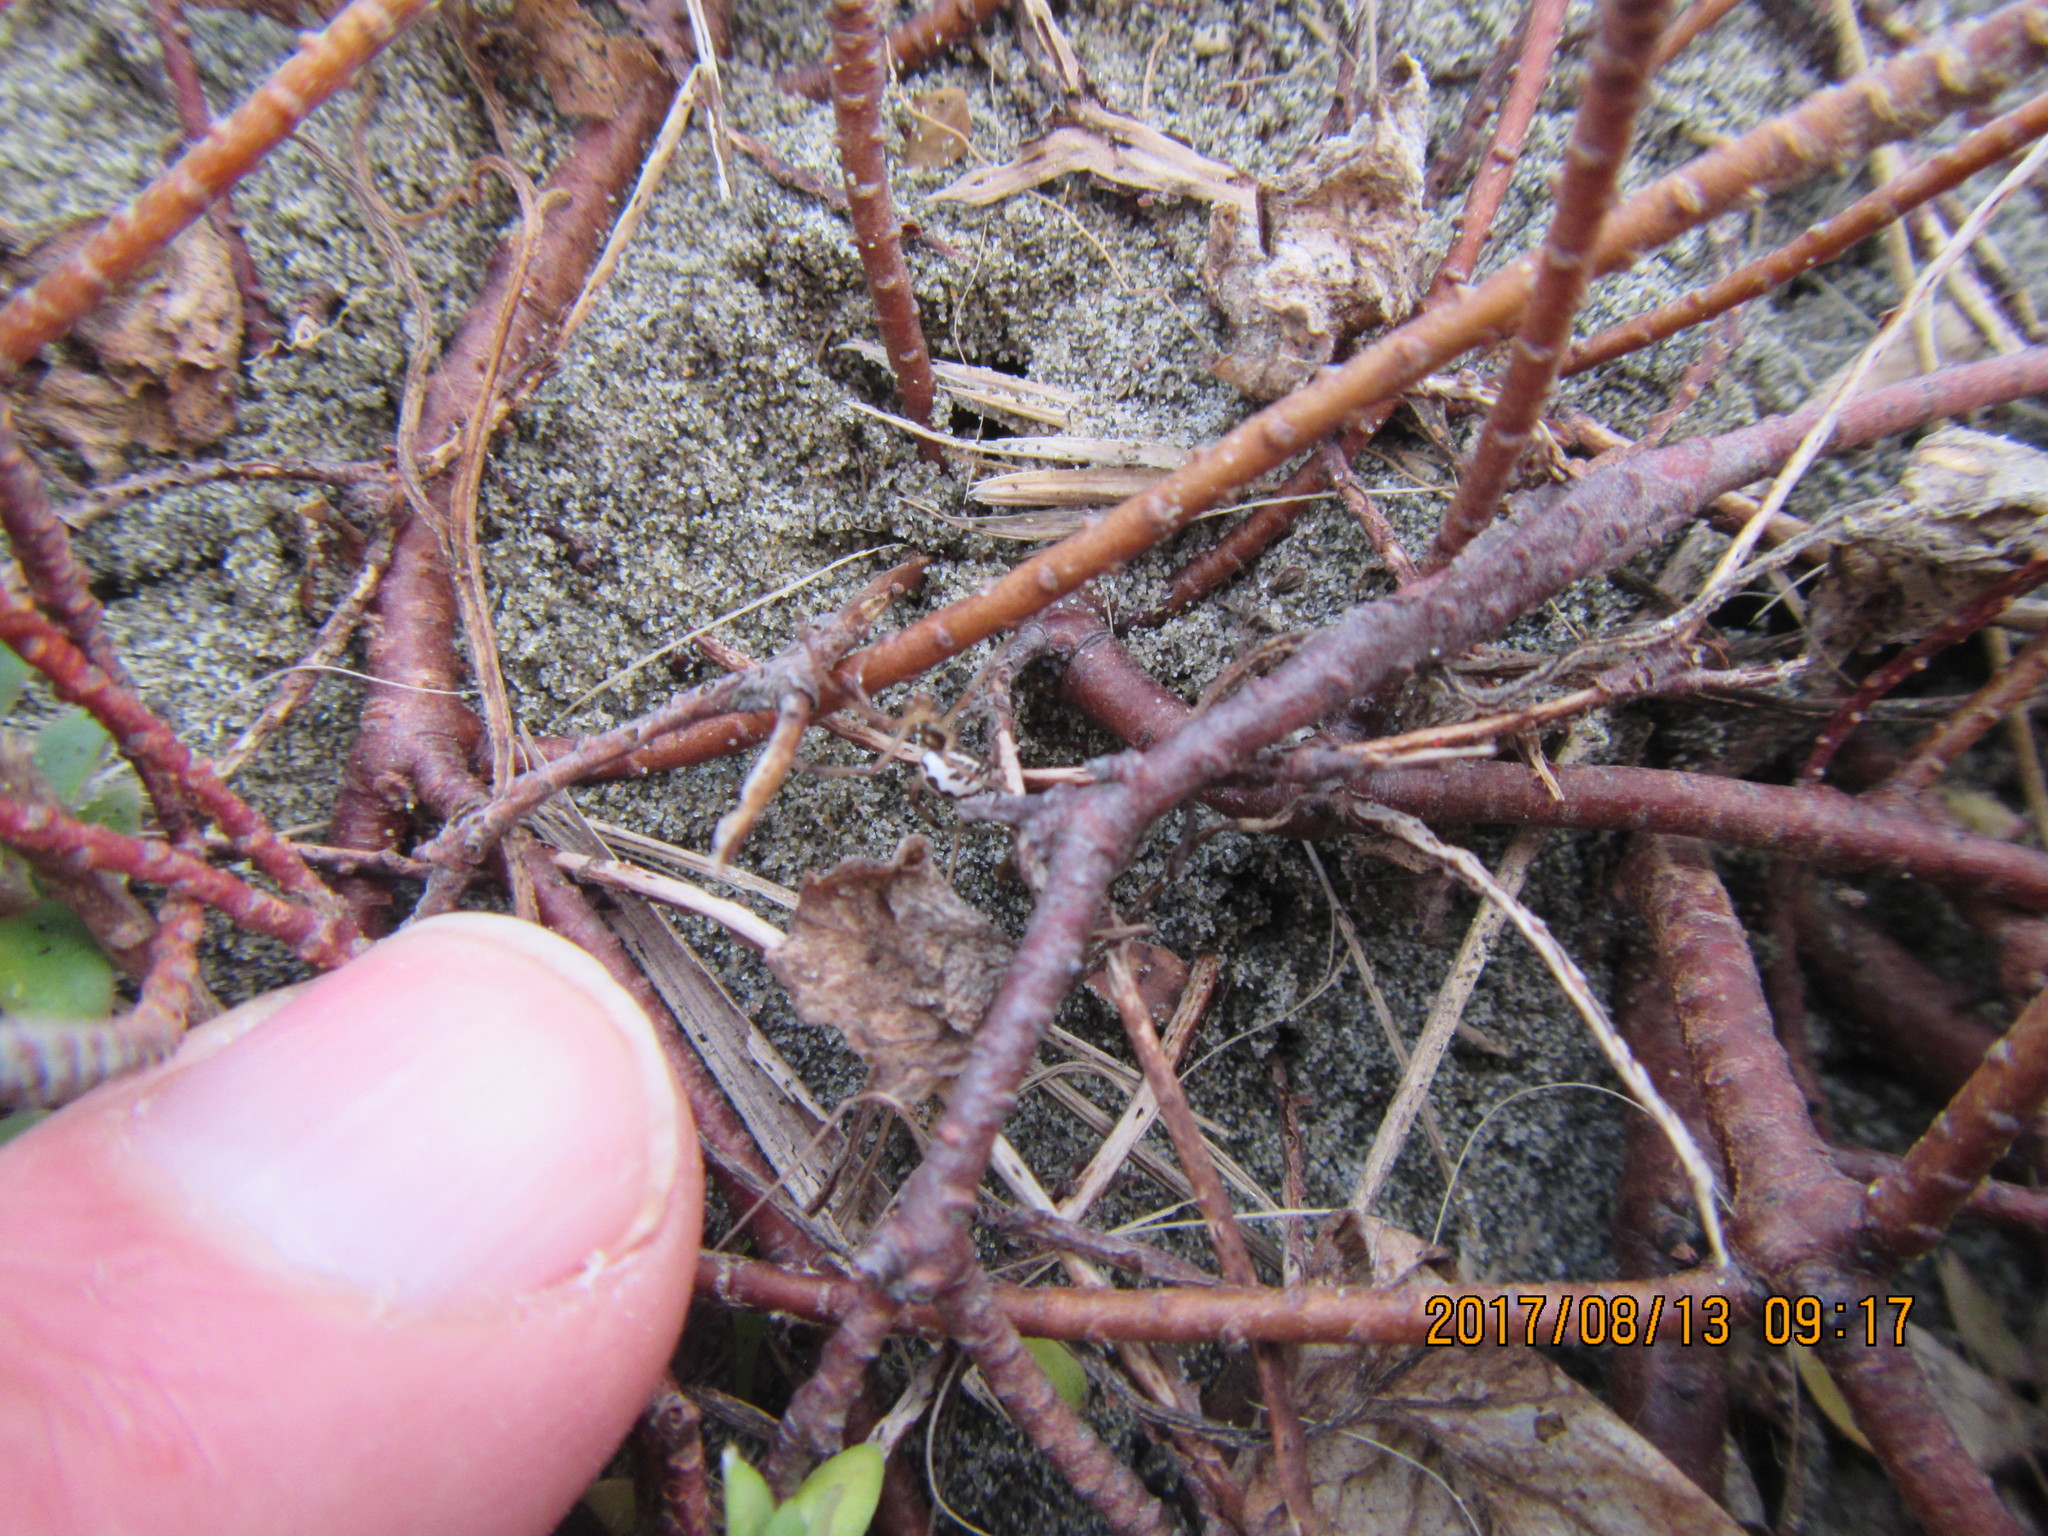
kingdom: Animalia
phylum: Arthropoda
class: Arachnida
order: Araneae
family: Theridiidae
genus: Latrodectus
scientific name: Latrodectus katipo
